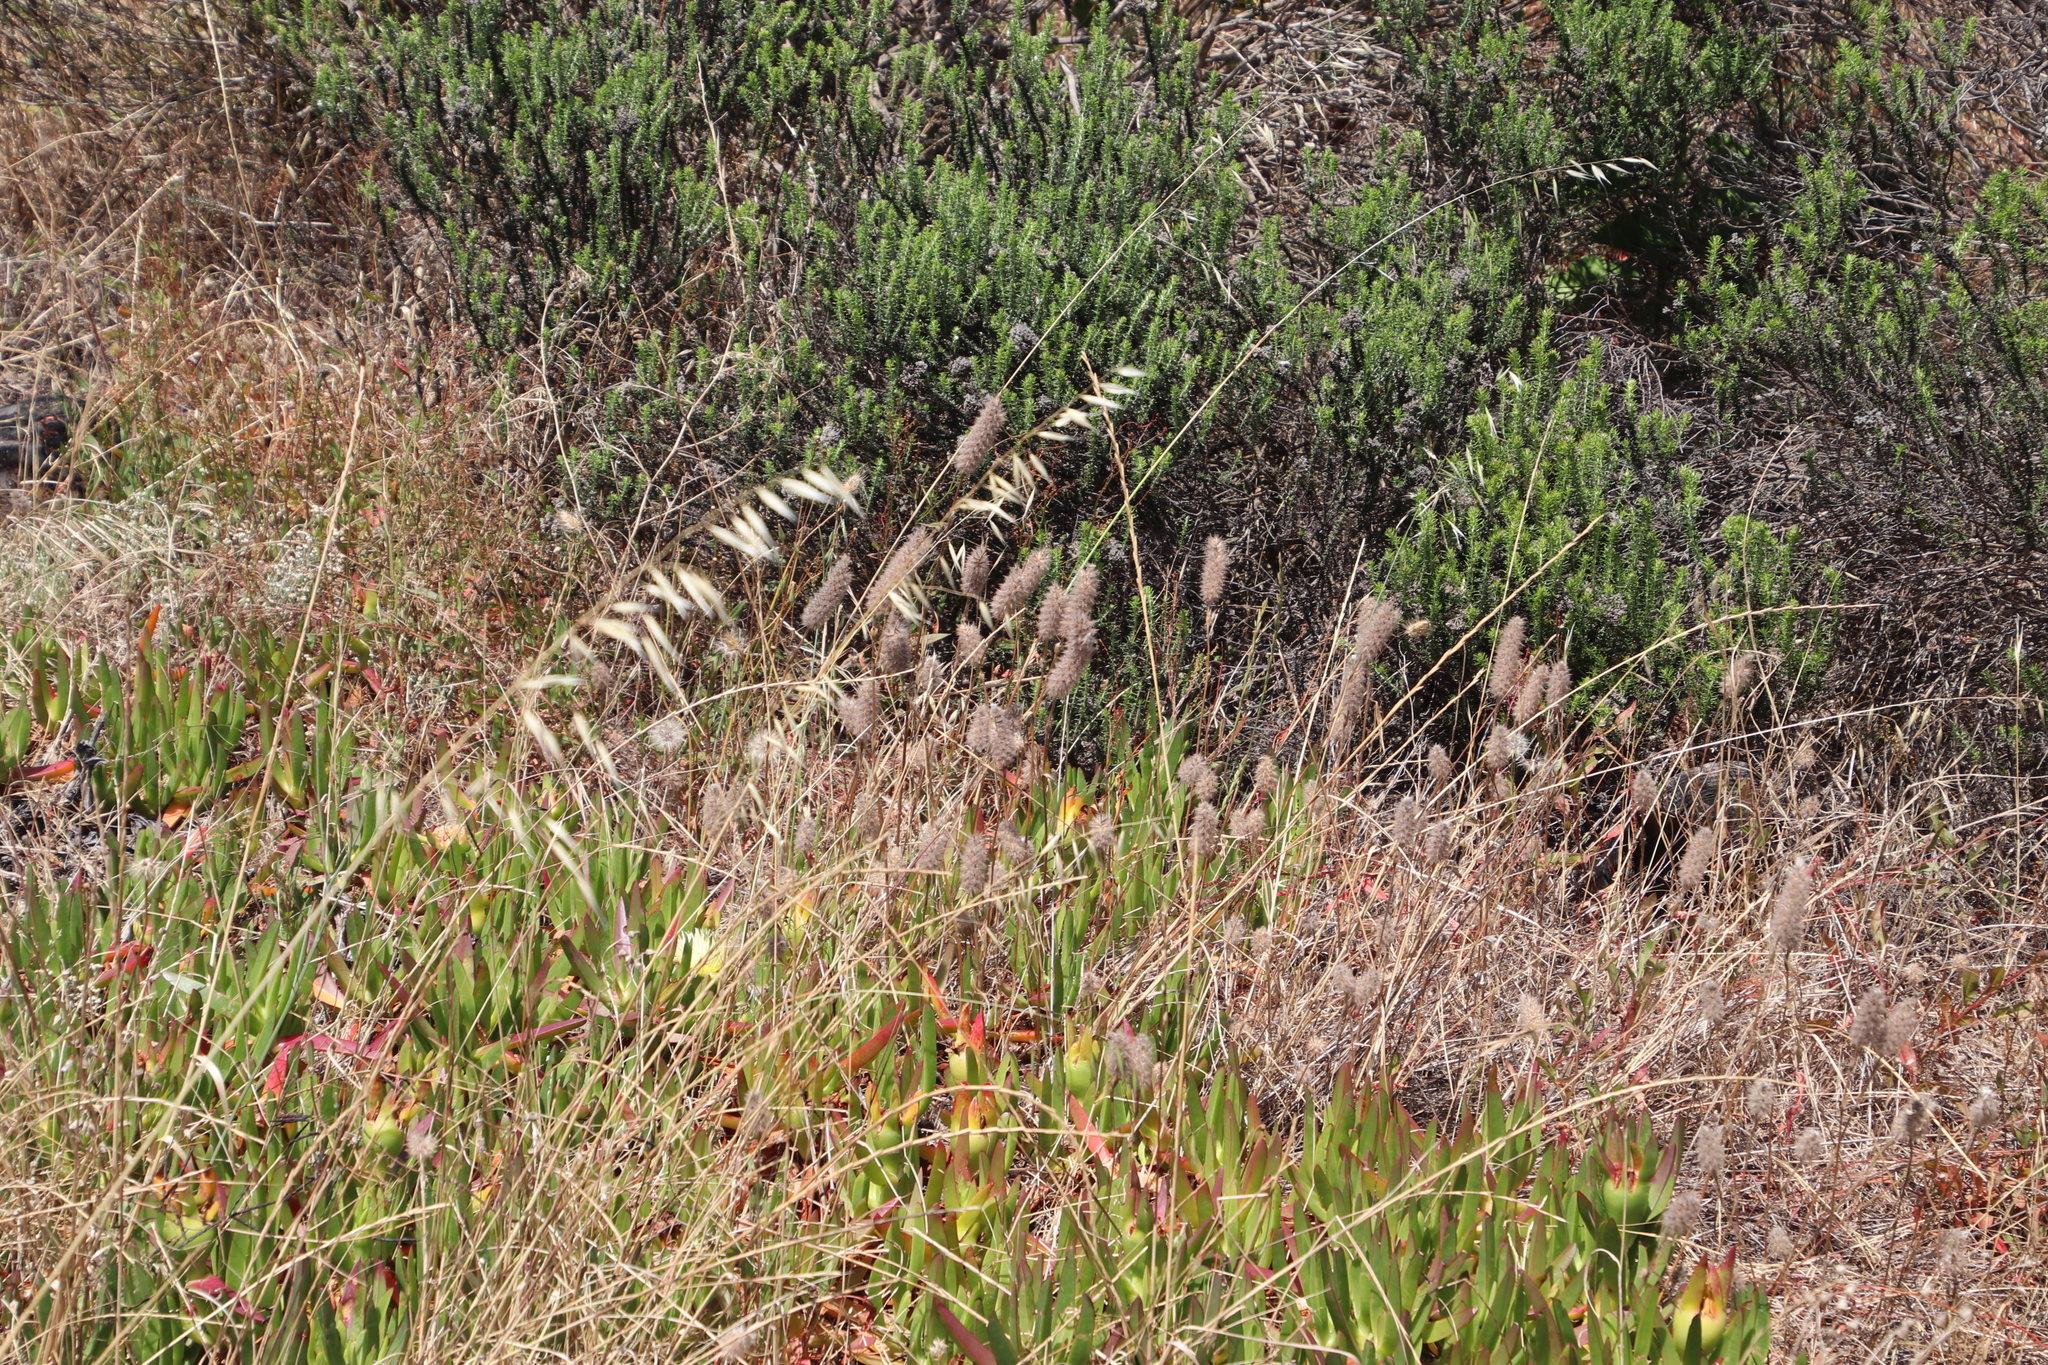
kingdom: Plantae
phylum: Tracheophyta
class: Magnoliopsida
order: Caryophyllales
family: Aizoaceae
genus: Carpobrotus
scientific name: Carpobrotus edulis
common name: Hottentot-fig
